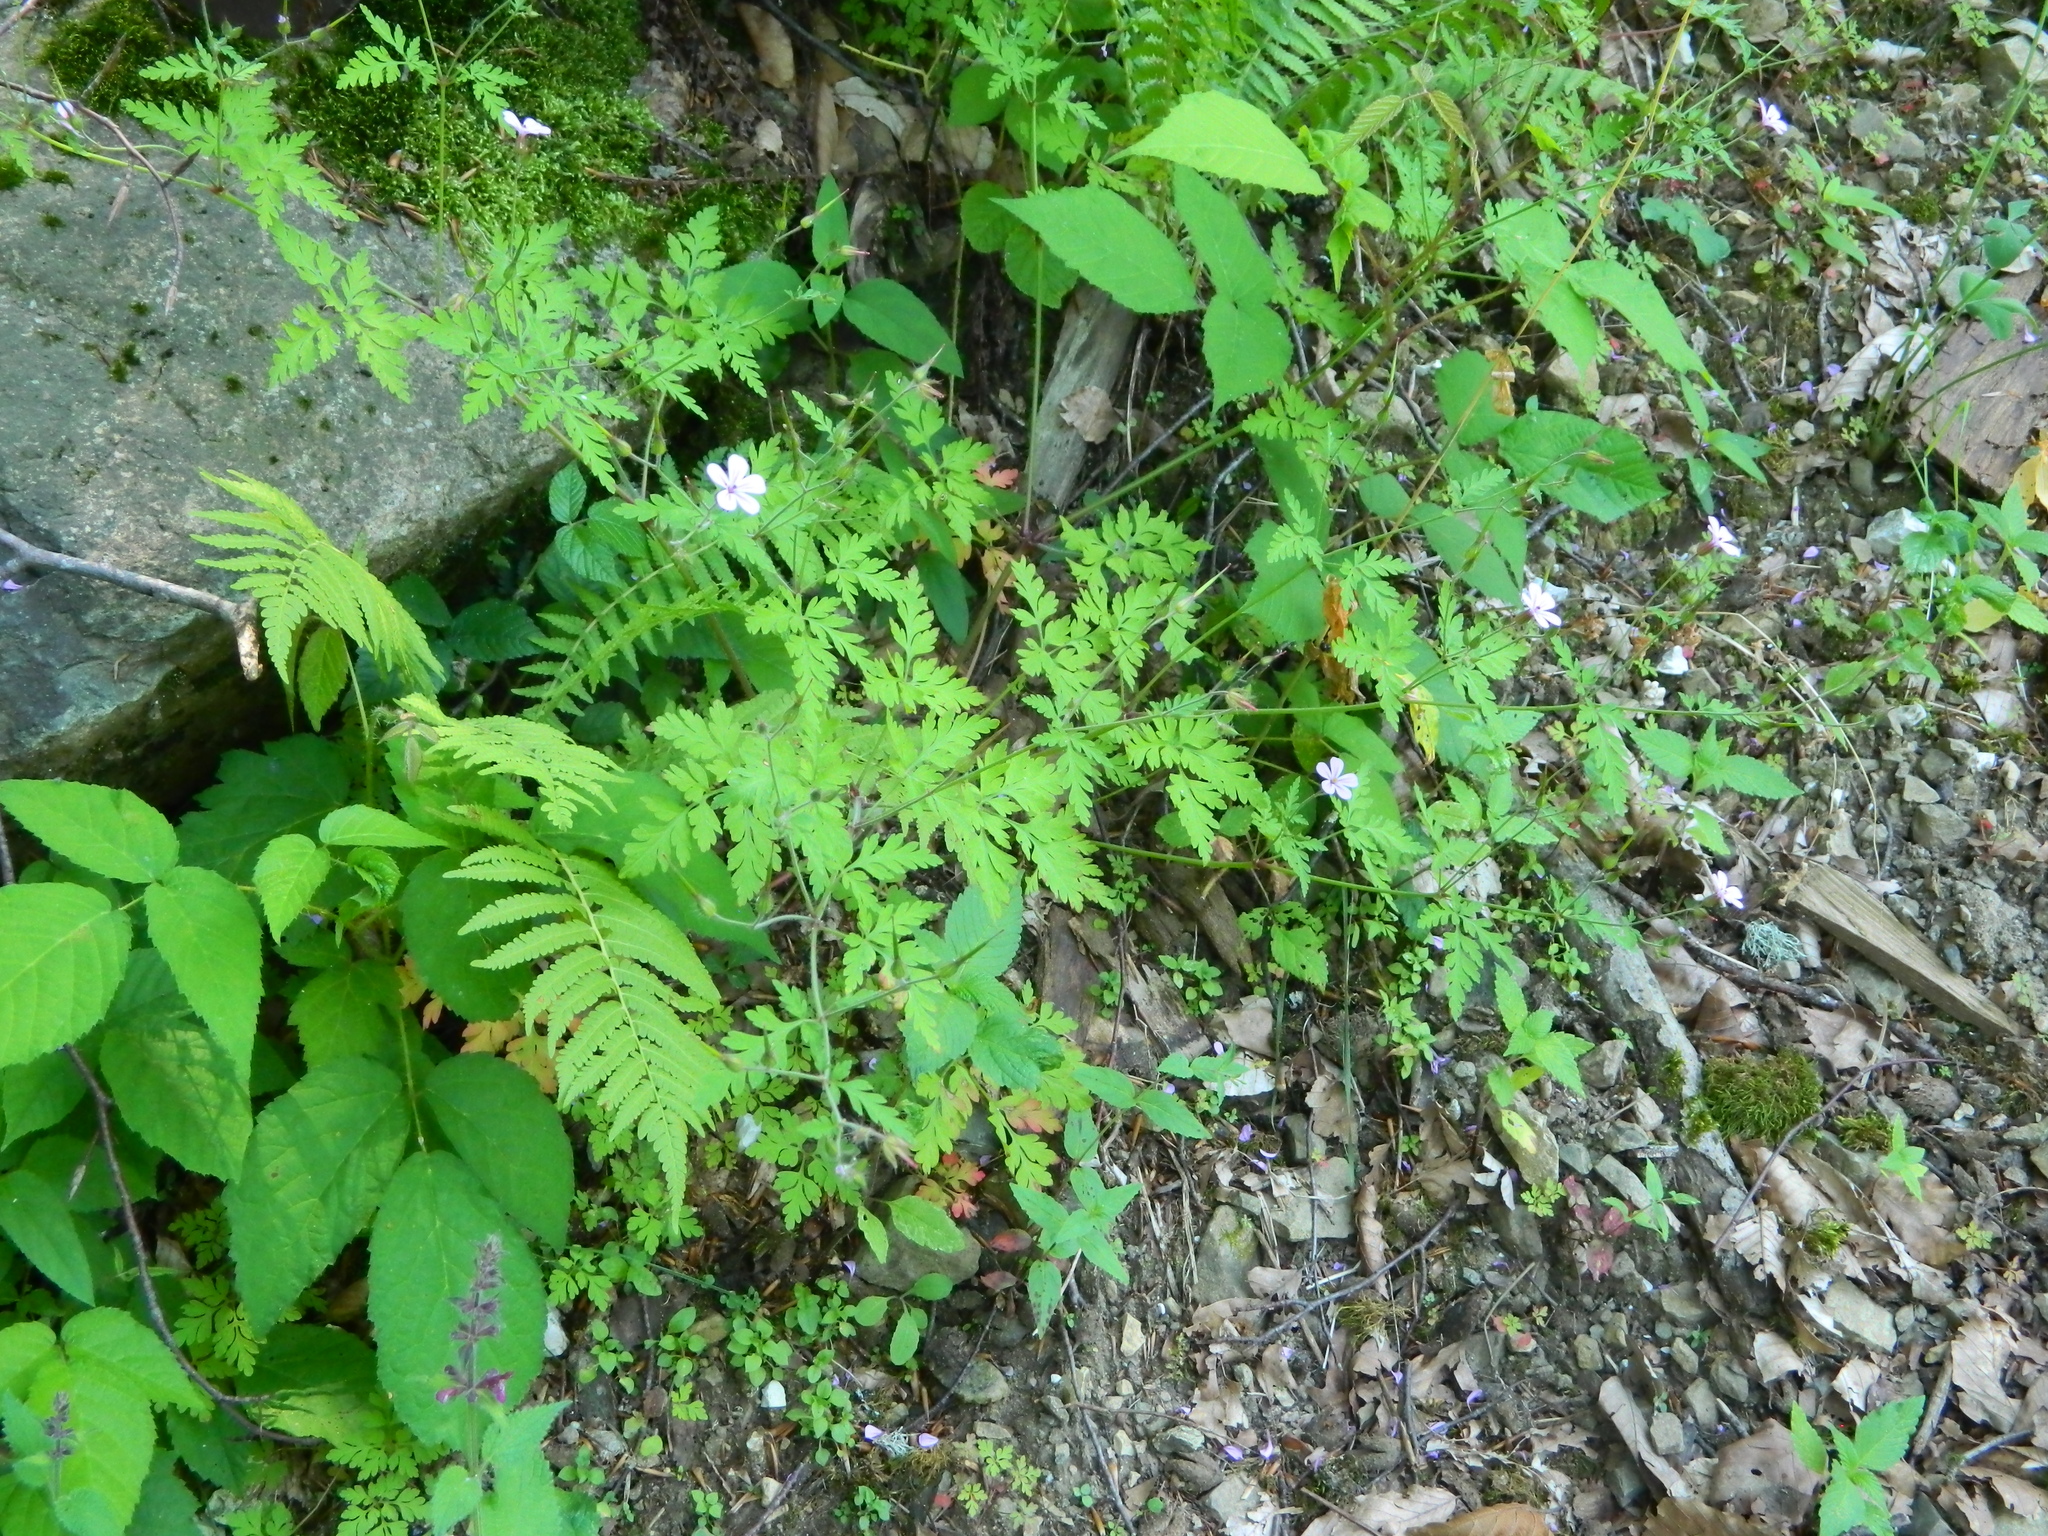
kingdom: Plantae
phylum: Tracheophyta
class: Magnoliopsida
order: Geraniales
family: Geraniaceae
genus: Geranium
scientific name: Geranium robertianum
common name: Herb-robert
